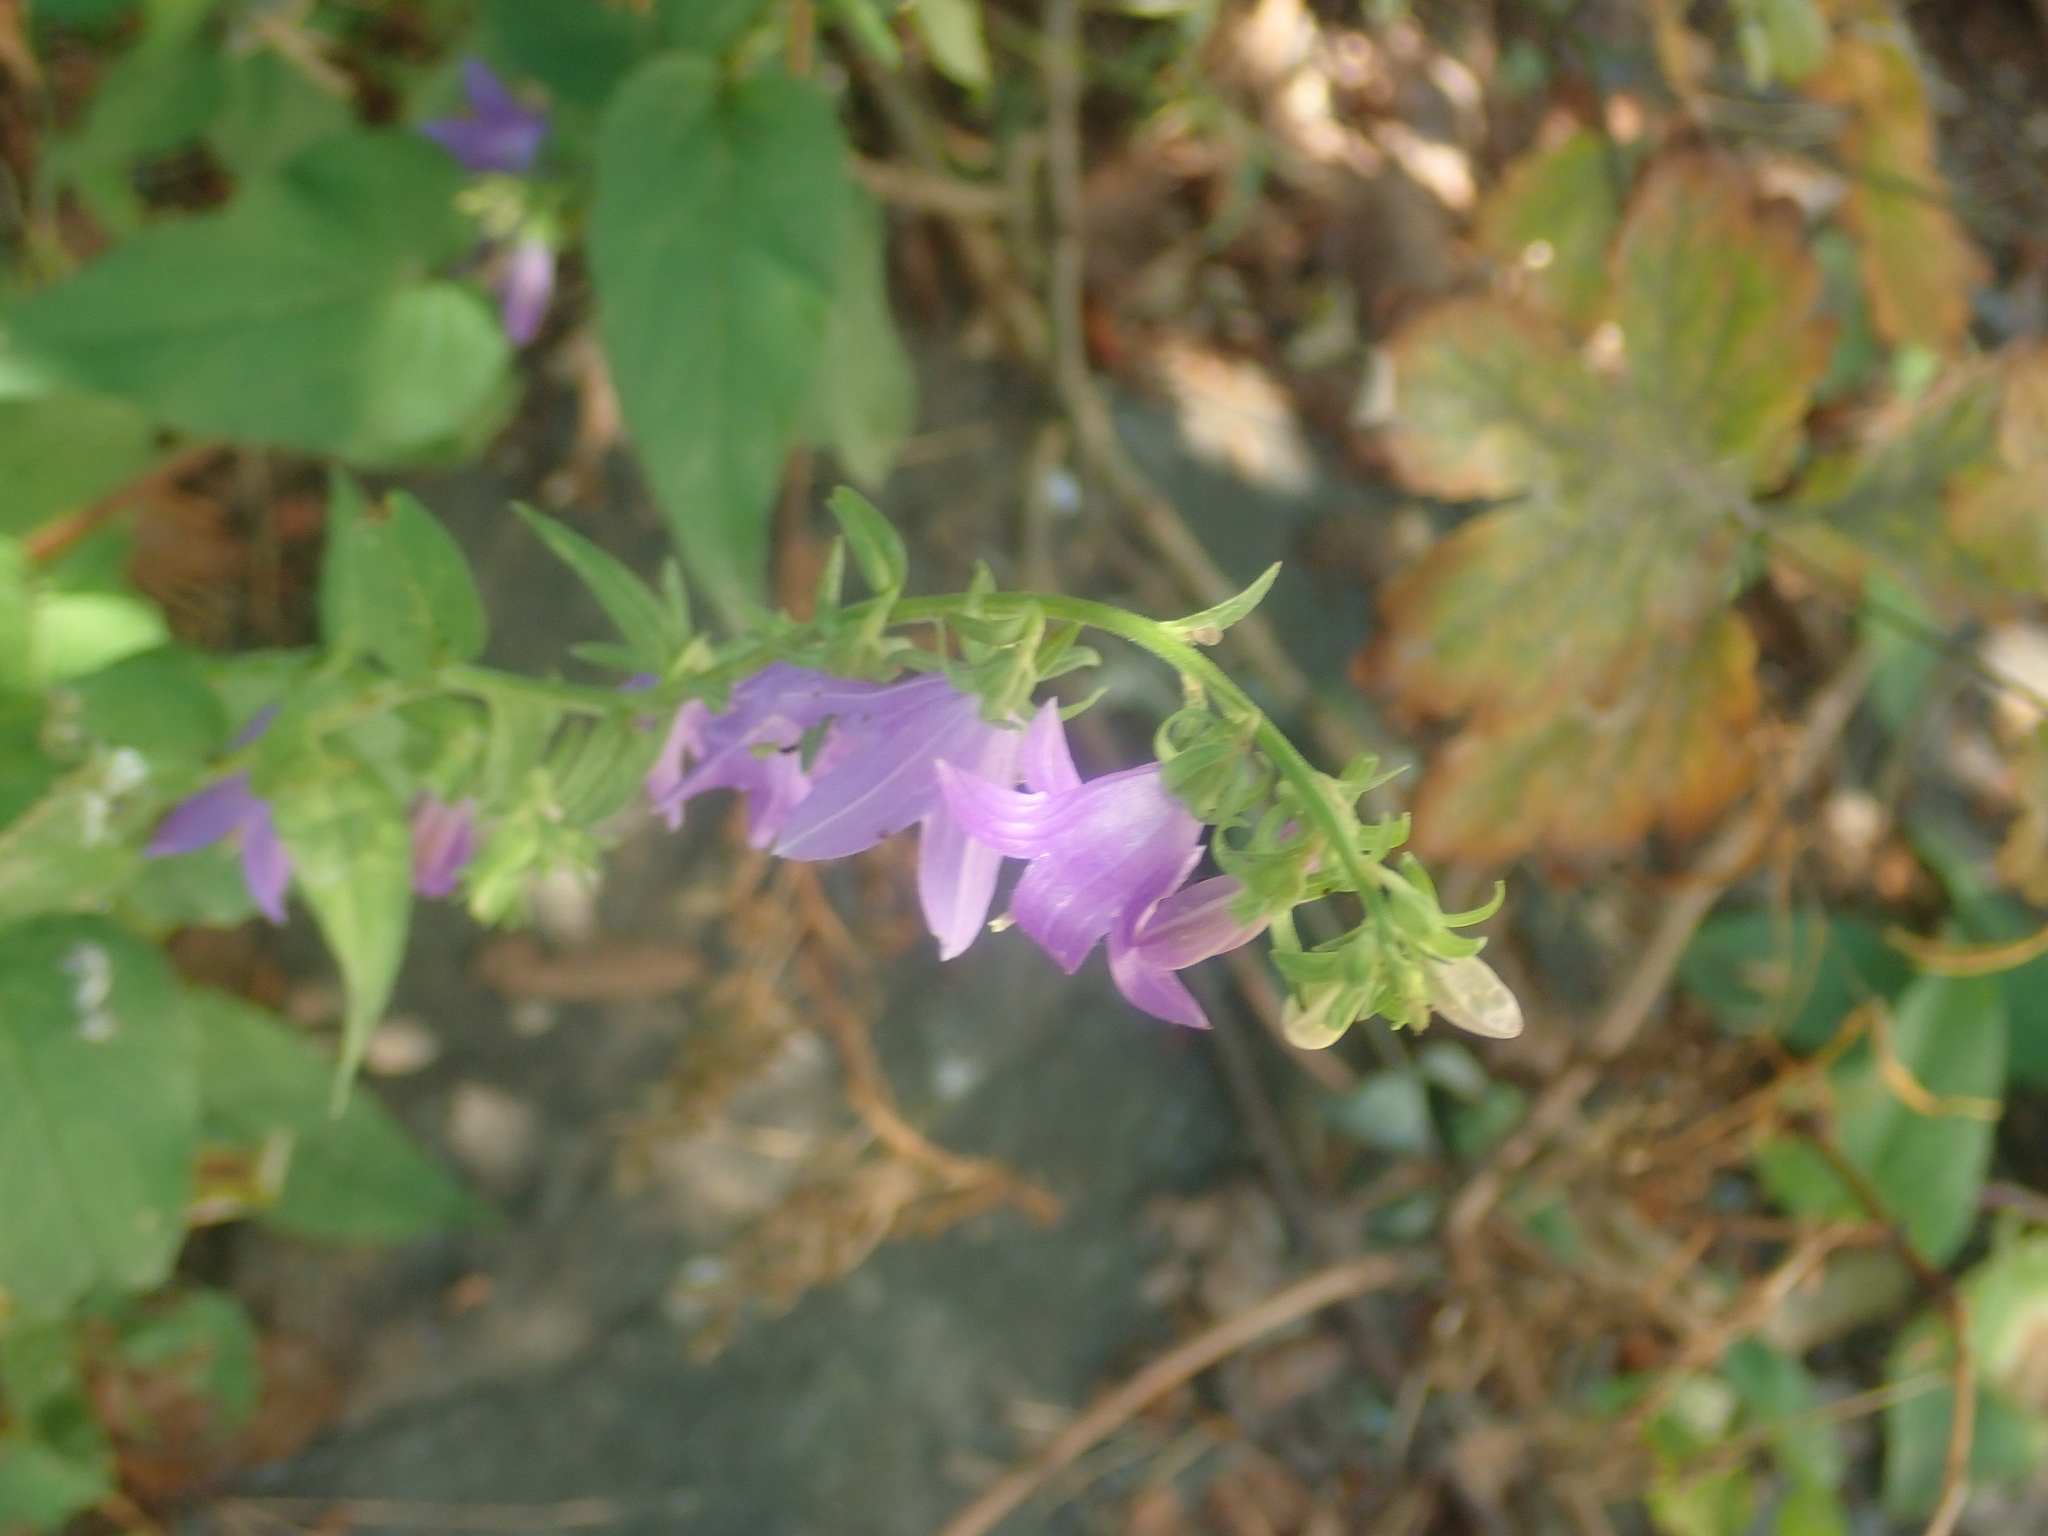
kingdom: Plantae
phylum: Tracheophyta
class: Magnoliopsida
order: Asterales
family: Campanulaceae
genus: Campanula
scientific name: Campanula rapunculoides
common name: Creeping bellflower
